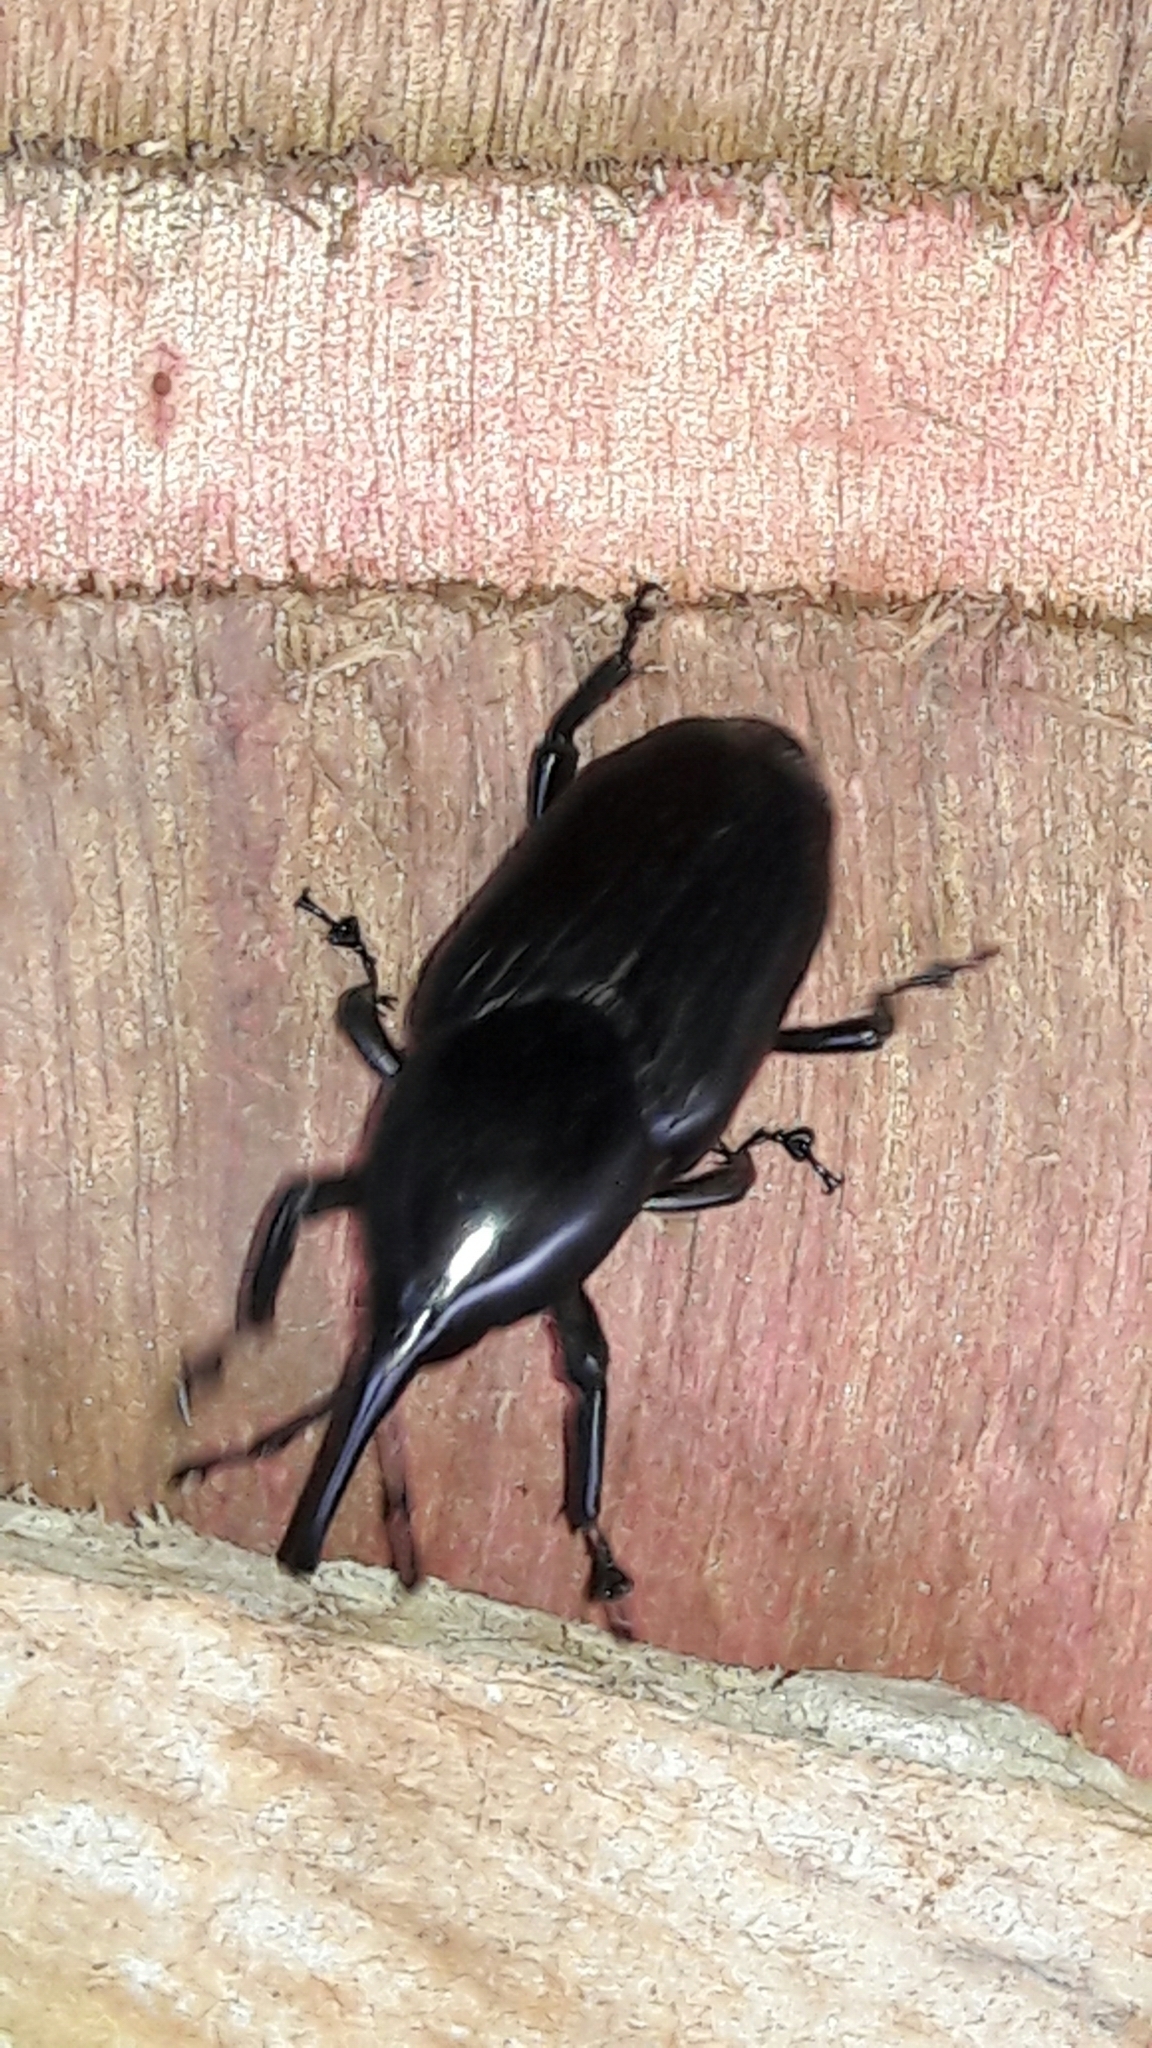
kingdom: Animalia
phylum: Arthropoda
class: Insecta
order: Coleoptera
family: Dryophthoridae
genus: Dynamis
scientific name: Dynamis borassi
